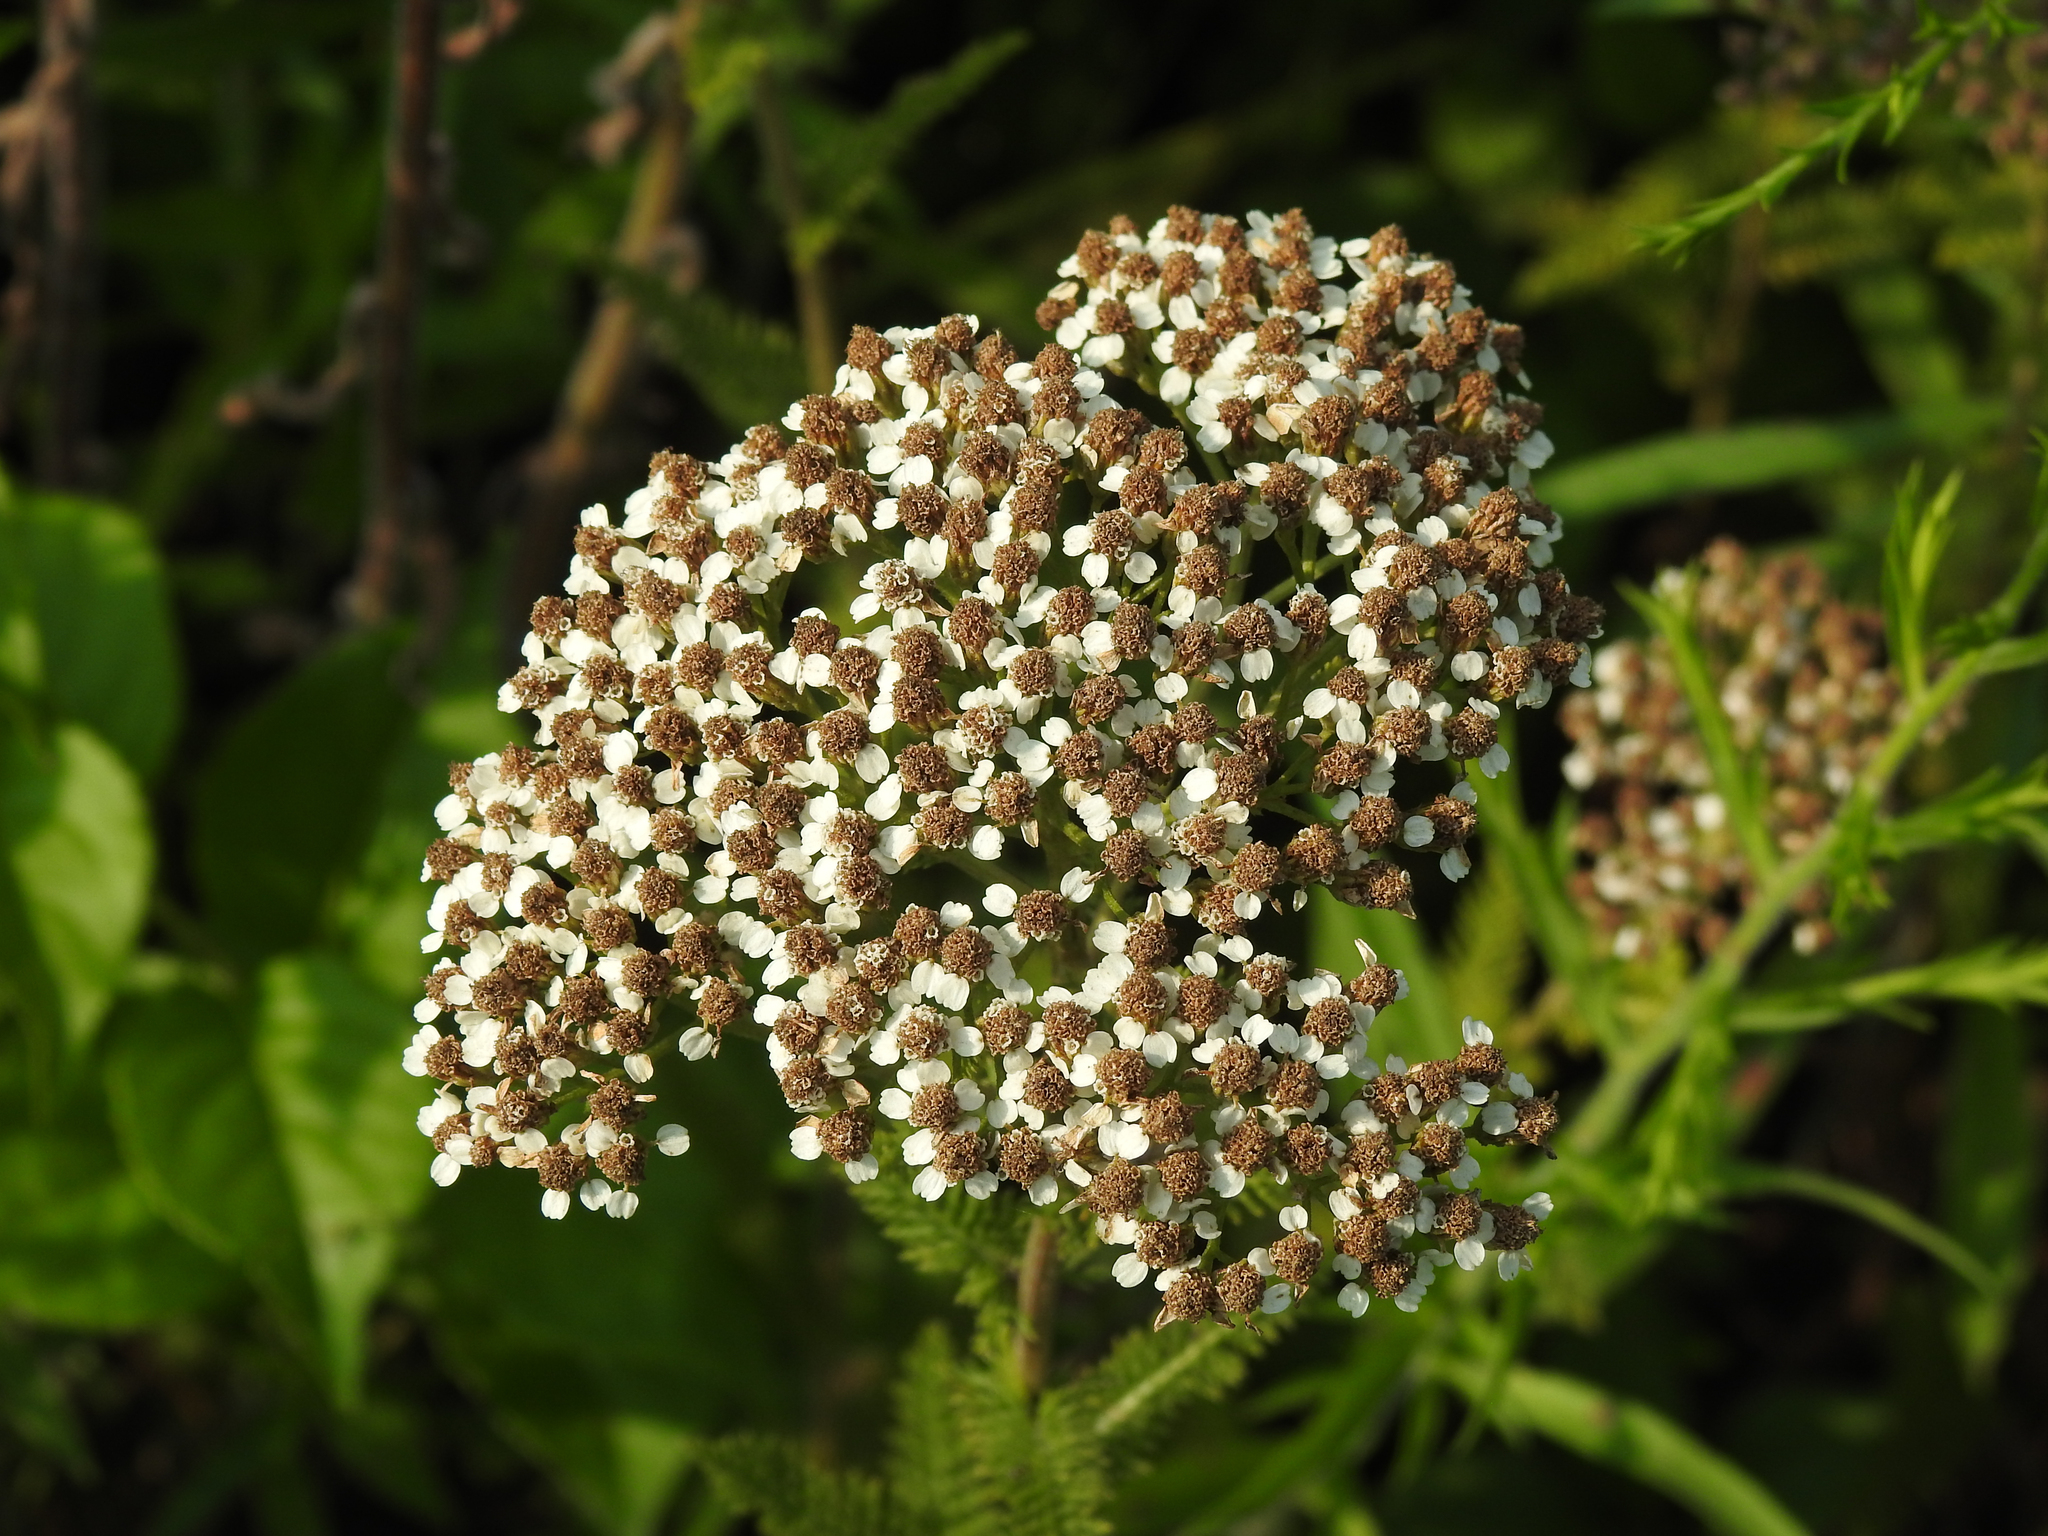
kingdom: Plantae
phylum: Tracheophyta
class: Magnoliopsida
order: Asterales
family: Asteraceae
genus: Achillea
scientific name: Achillea millefolium
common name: Yarrow
